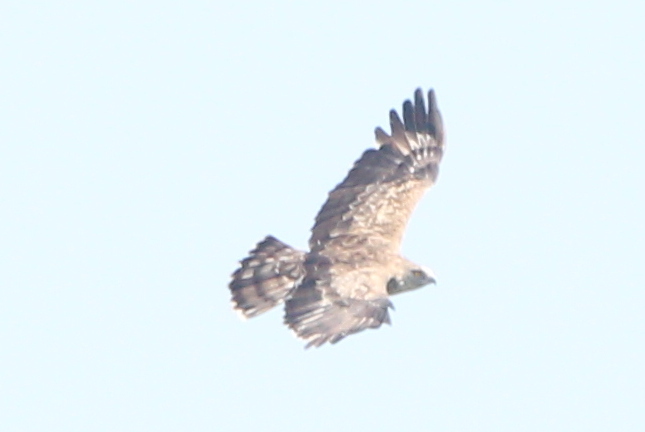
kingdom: Animalia
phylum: Chordata
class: Aves
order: Accipitriformes
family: Accipitridae
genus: Circaetus
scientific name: Circaetus gallicus
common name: Short-toed snake eagle
